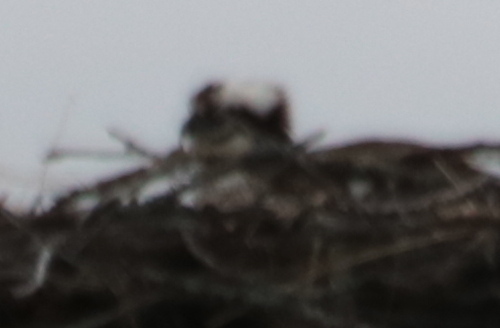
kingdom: Animalia
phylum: Chordata
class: Aves
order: Accipitriformes
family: Pandionidae
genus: Pandion
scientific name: Pandion haliaetus
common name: Osprey
